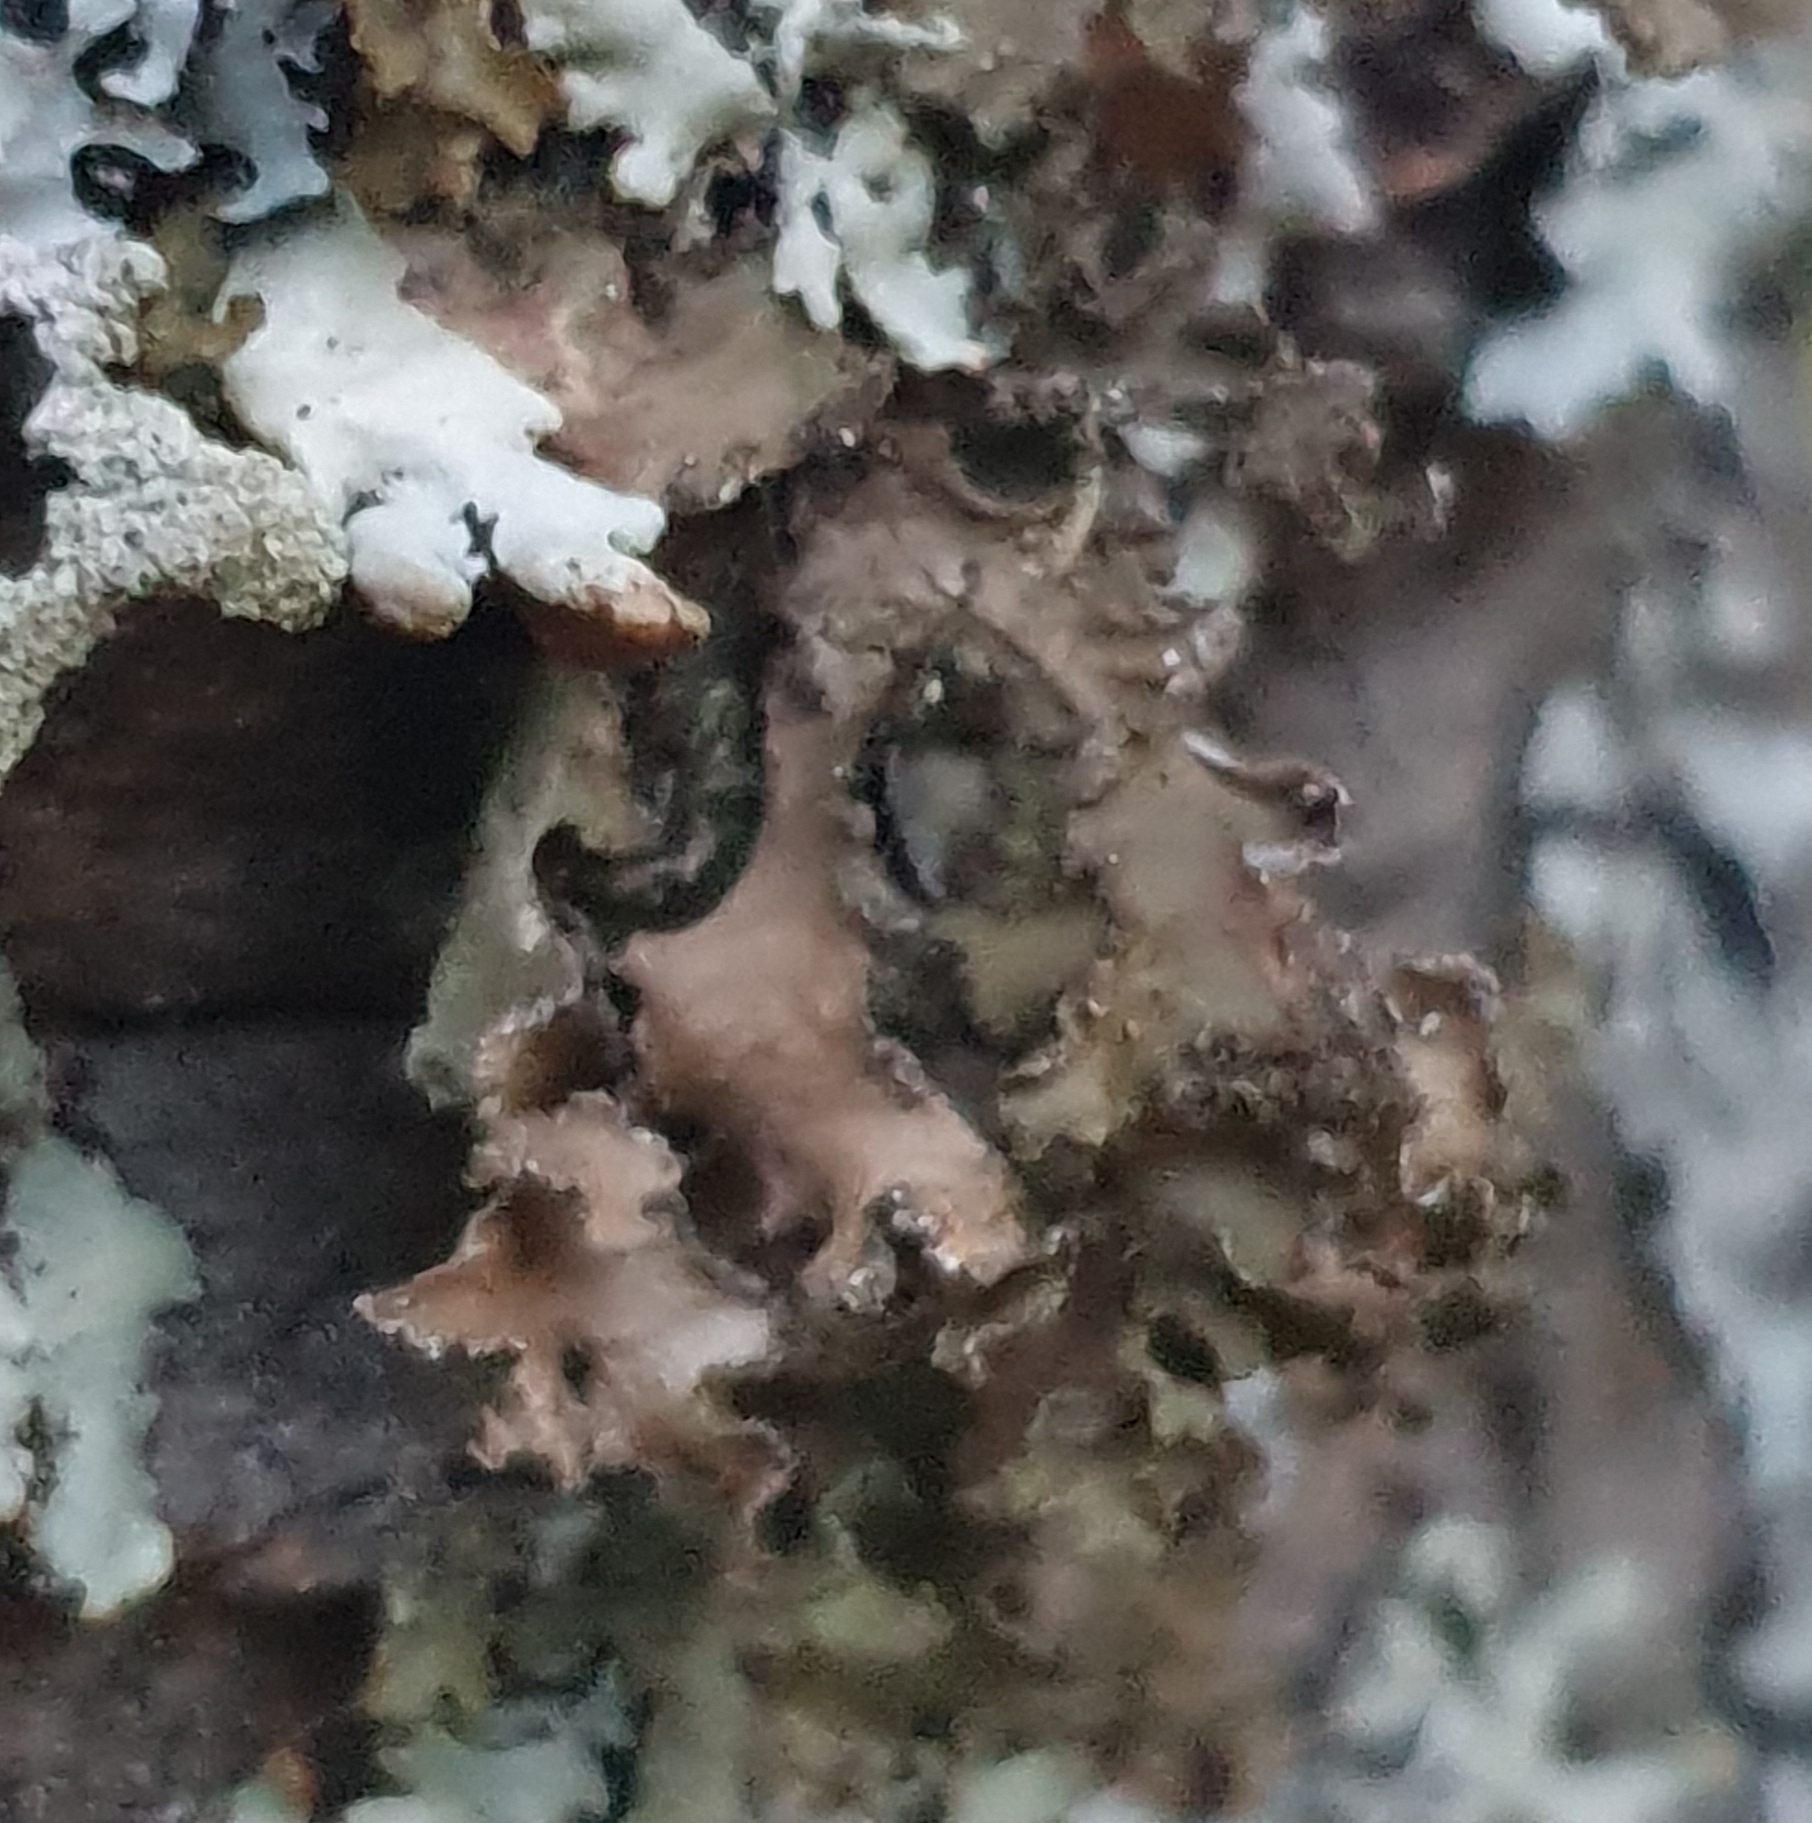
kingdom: Fungi
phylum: Ascomycota
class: Lecanoromycetes
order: Lecanorales
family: Parmeliaceae
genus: Nephromopsis
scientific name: Nephromopsis chlorophylla
